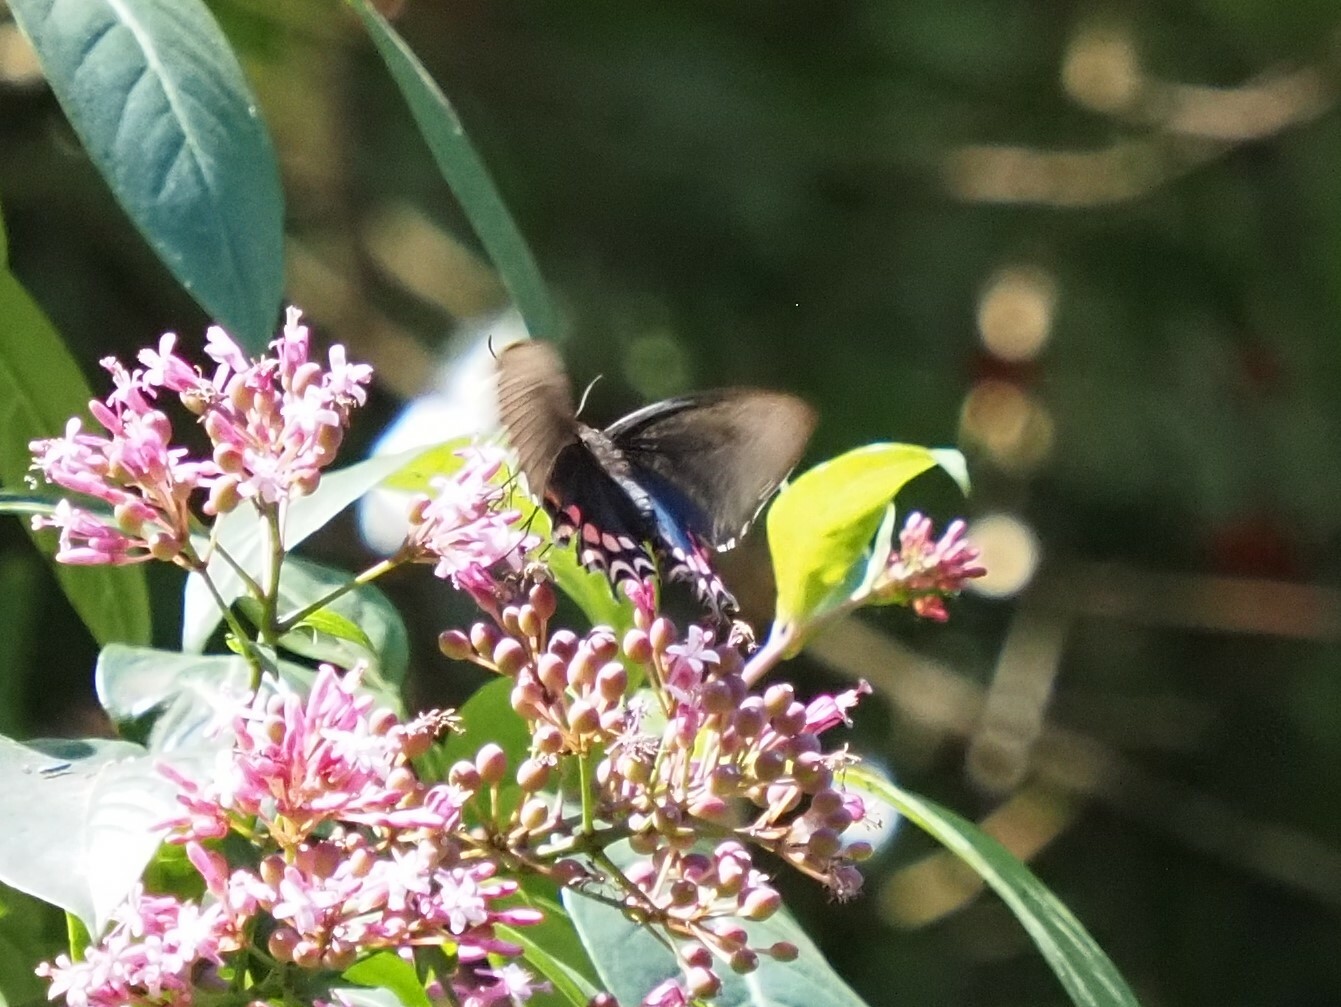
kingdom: Animalia
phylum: Arthropoda
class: Insecta
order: Lepidoptera
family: Papilionidae
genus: Parides
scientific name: Parides photinus
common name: Pink-spotted cattleheart
